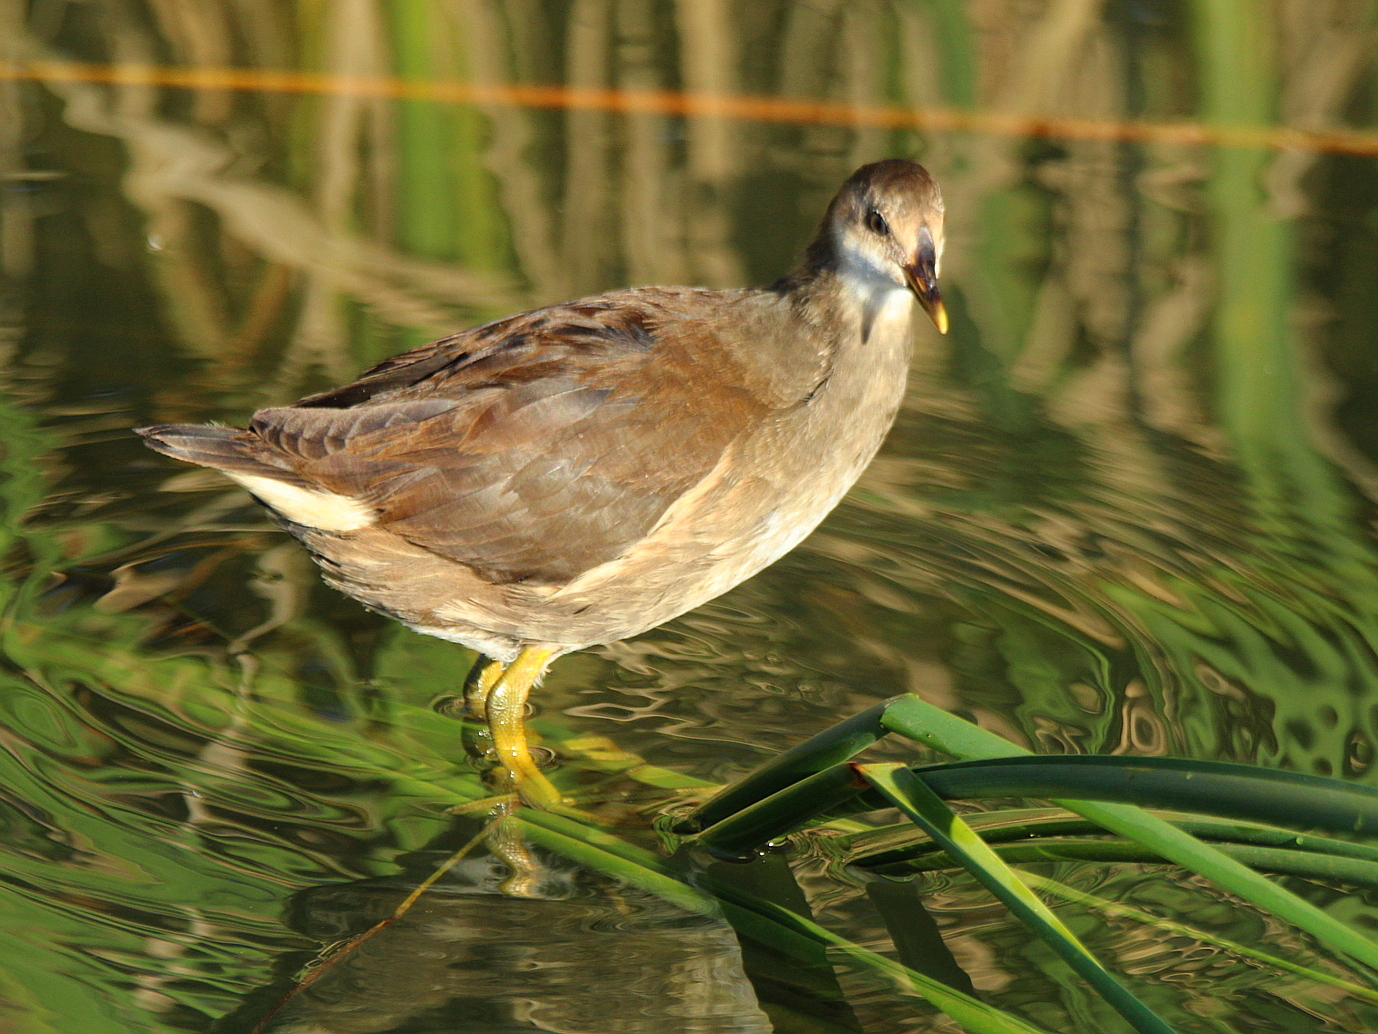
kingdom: Animalia
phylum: Chordata
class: Aves
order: Gruiformes
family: Rallidae
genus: Gallinula
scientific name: Gallinula chloropus
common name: Common moorhen
